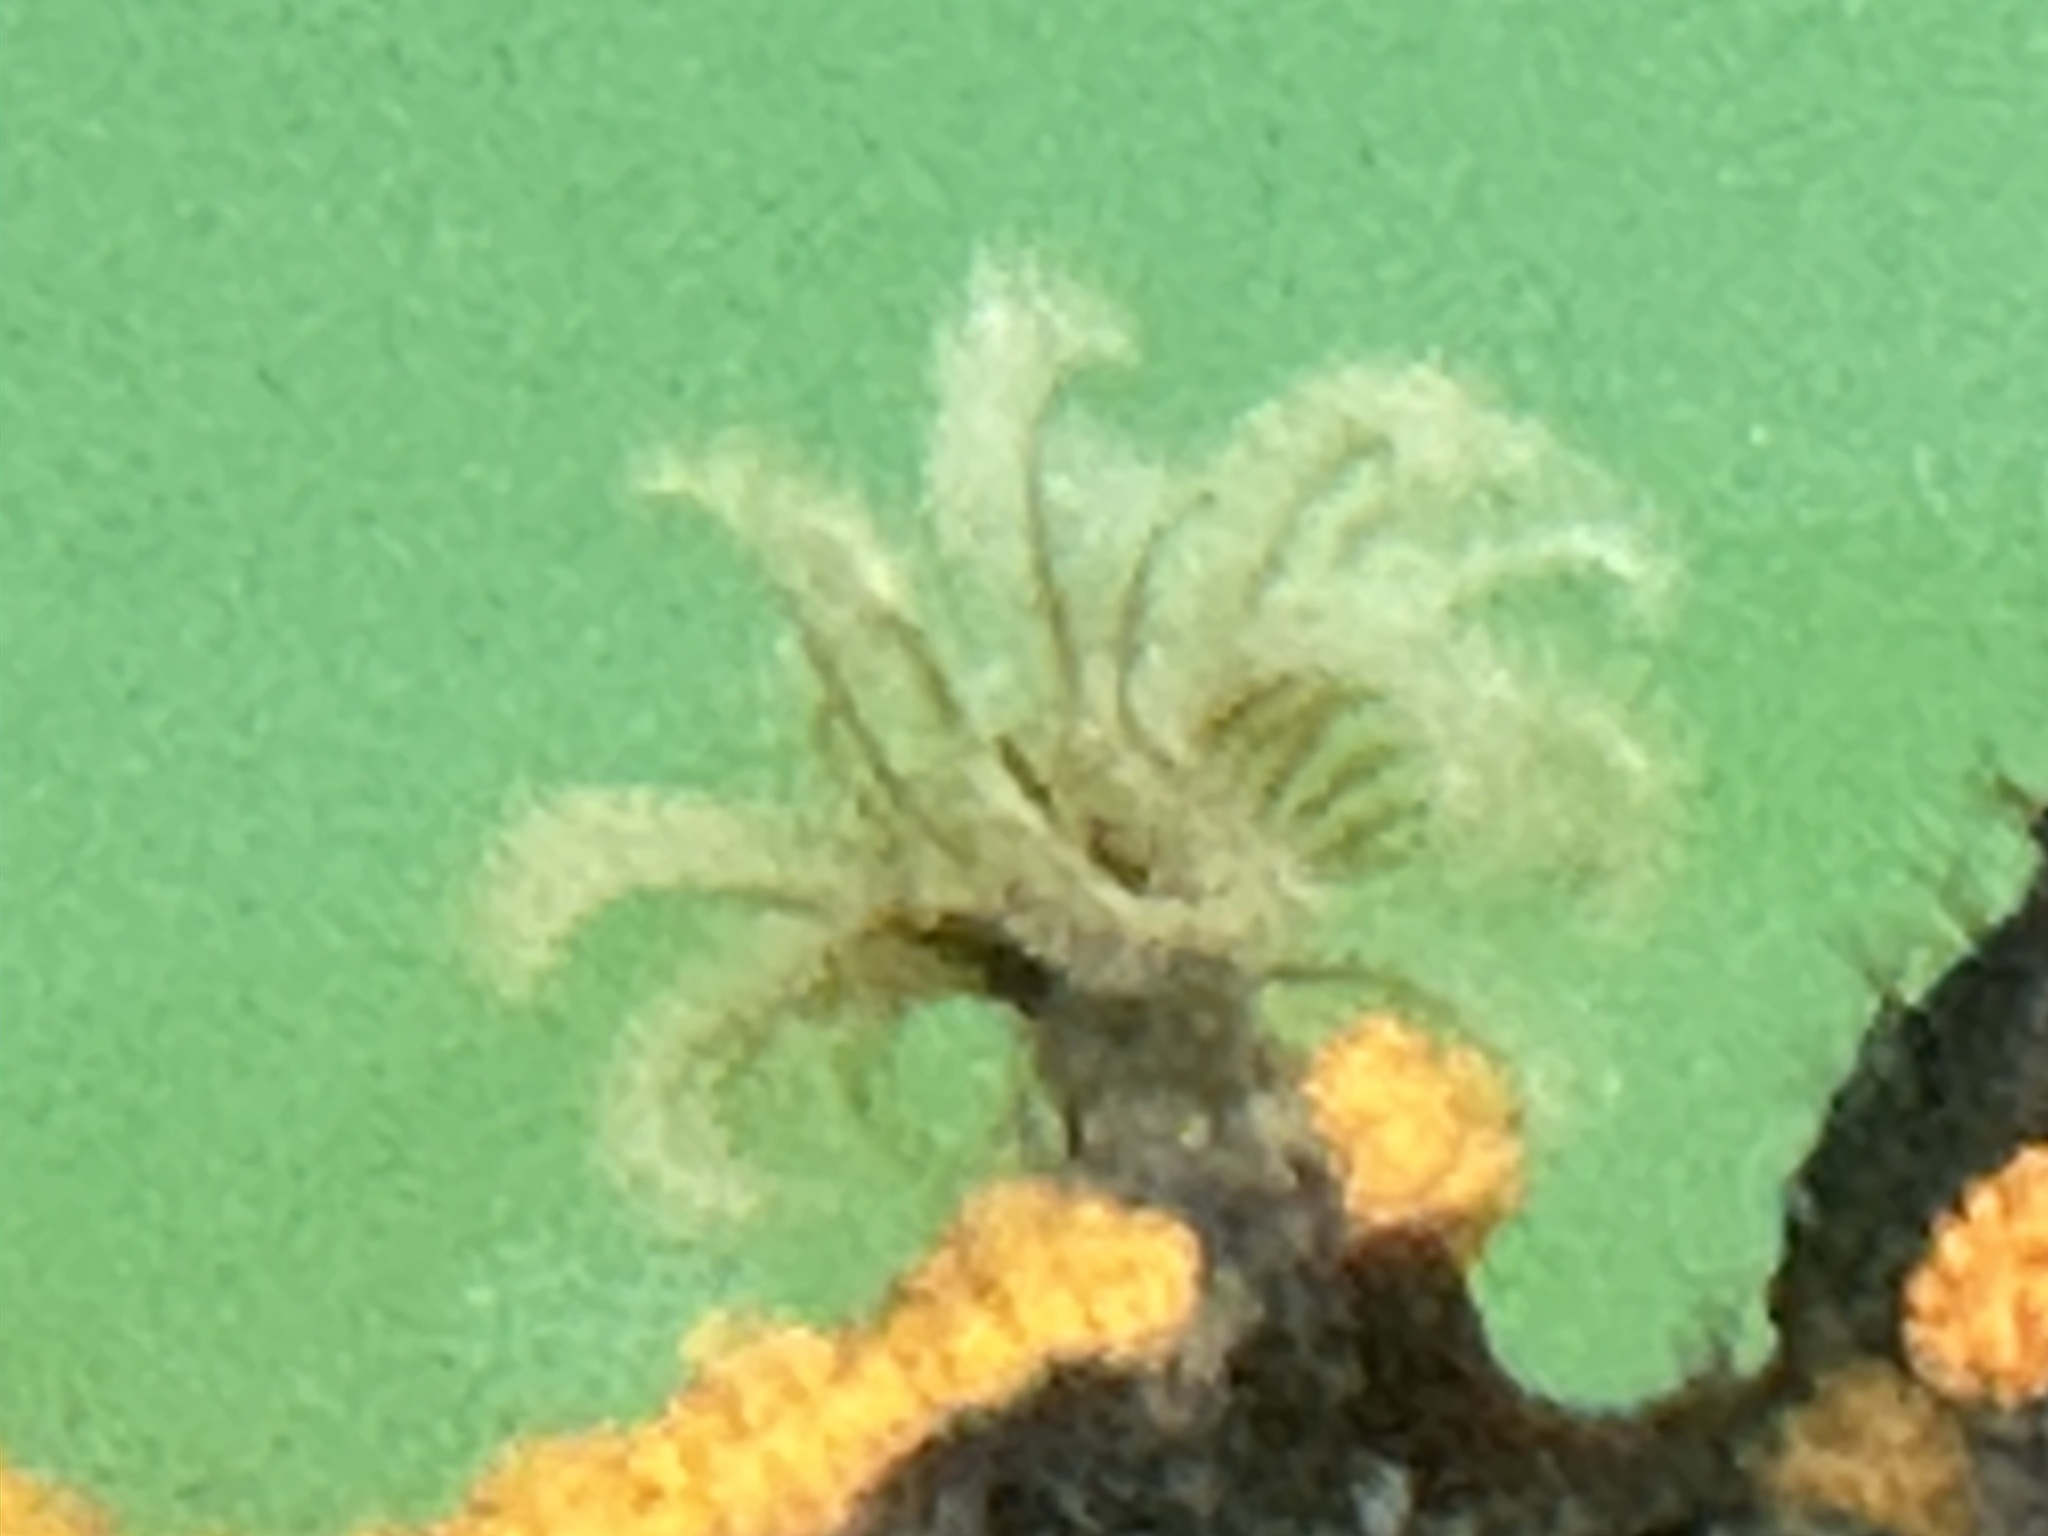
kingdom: Animalia
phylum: Annelida
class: Polychaeta
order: Sabellida
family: Sabellidae
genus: Eudistylia
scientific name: Eudistylia polymorpha
